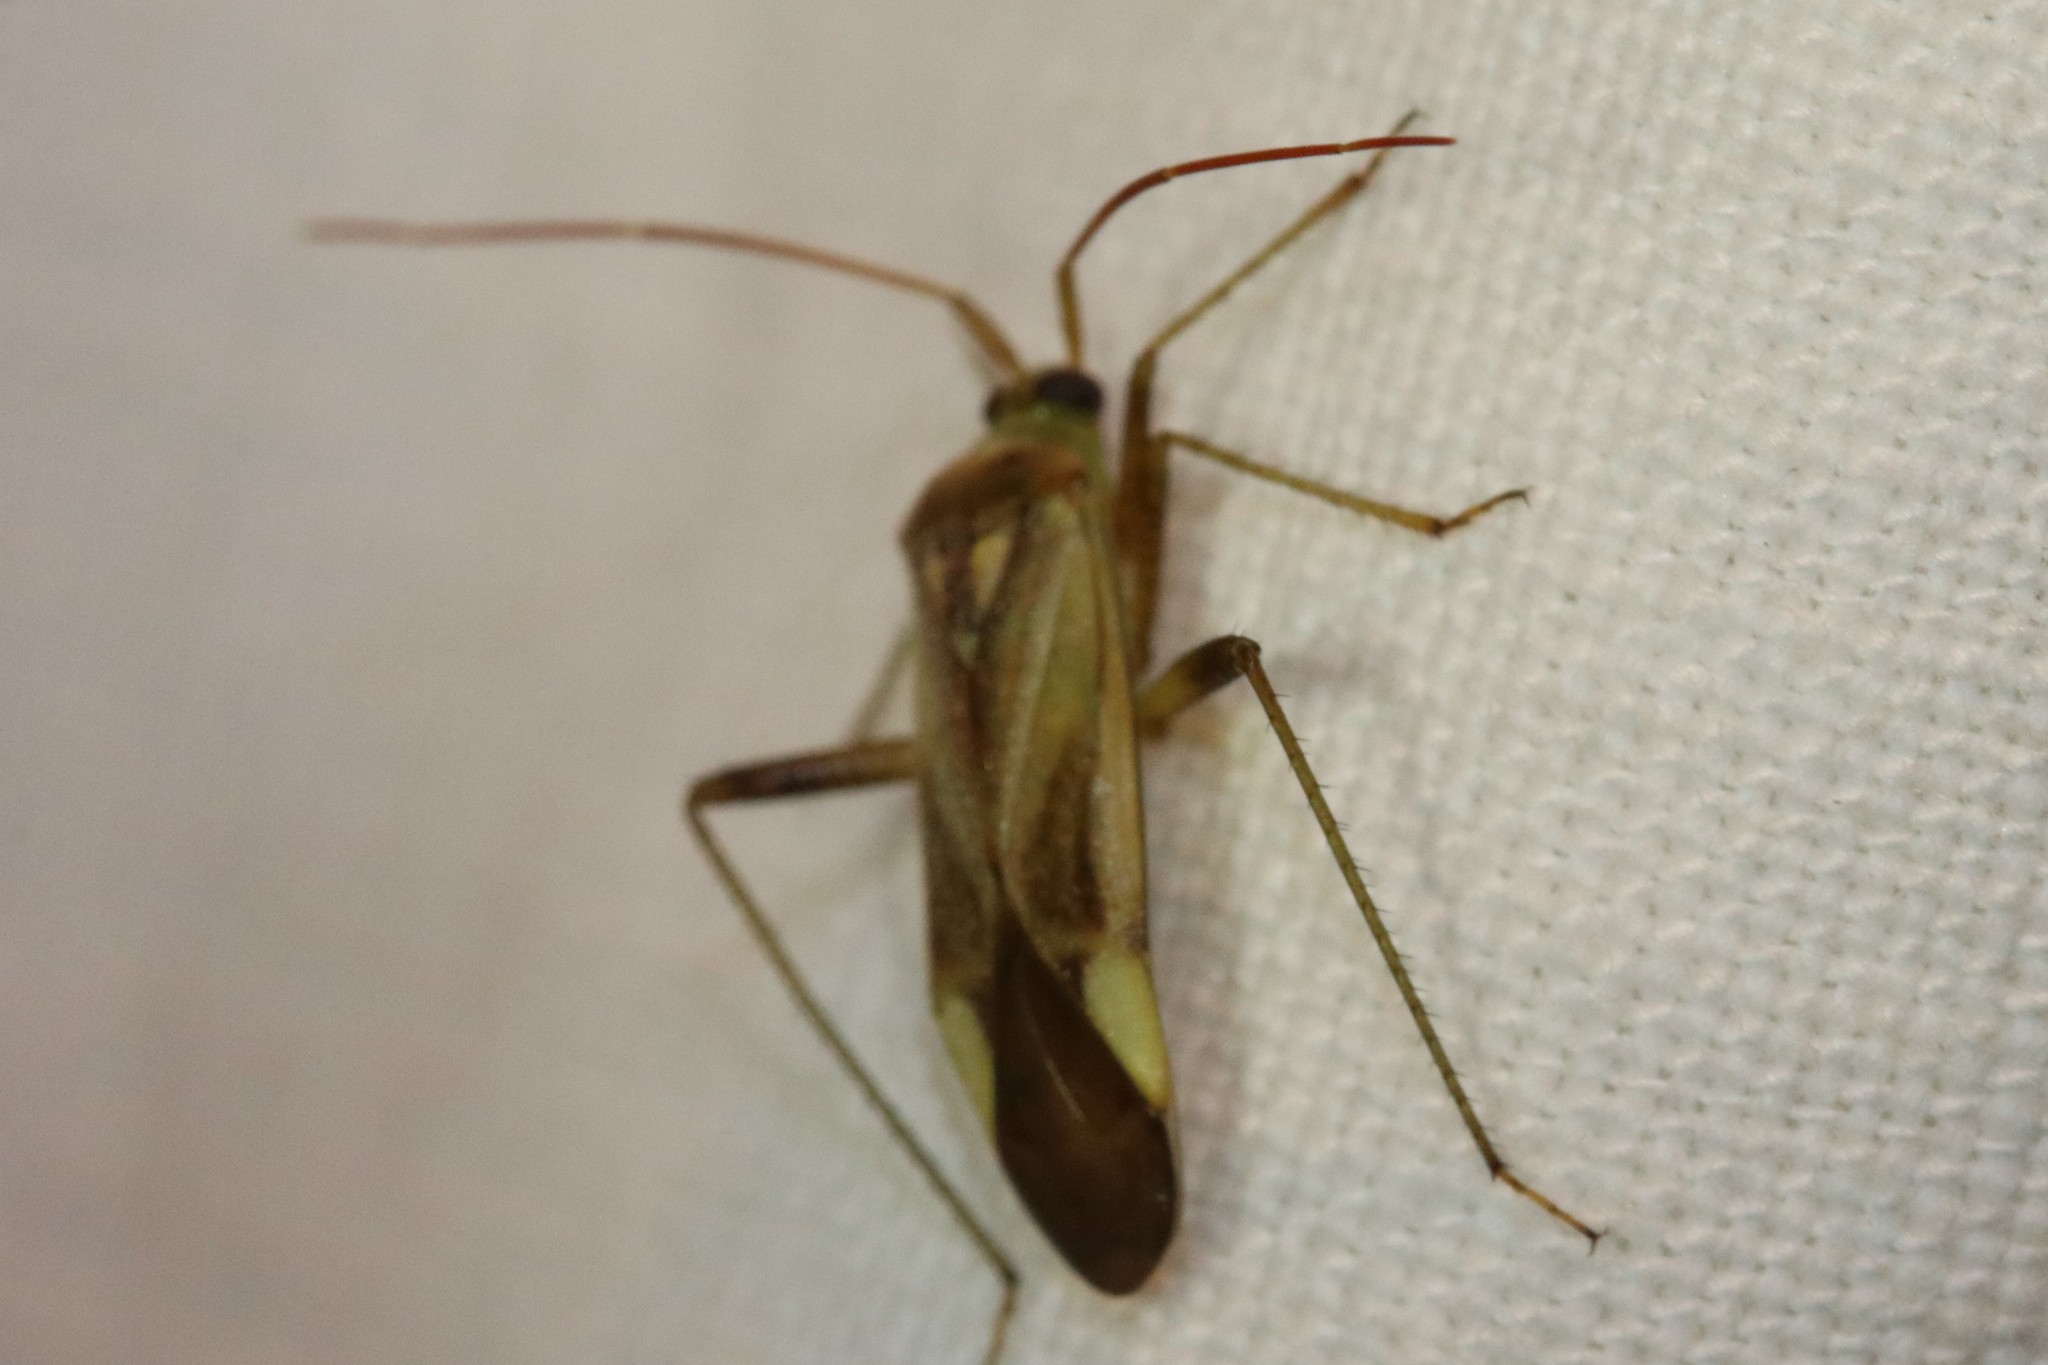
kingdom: Animalia
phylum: Arthropoda
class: Insecta
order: Hemiptera
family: Miridae
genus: Adelphocoris
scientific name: Adelphocoris lineolatus
